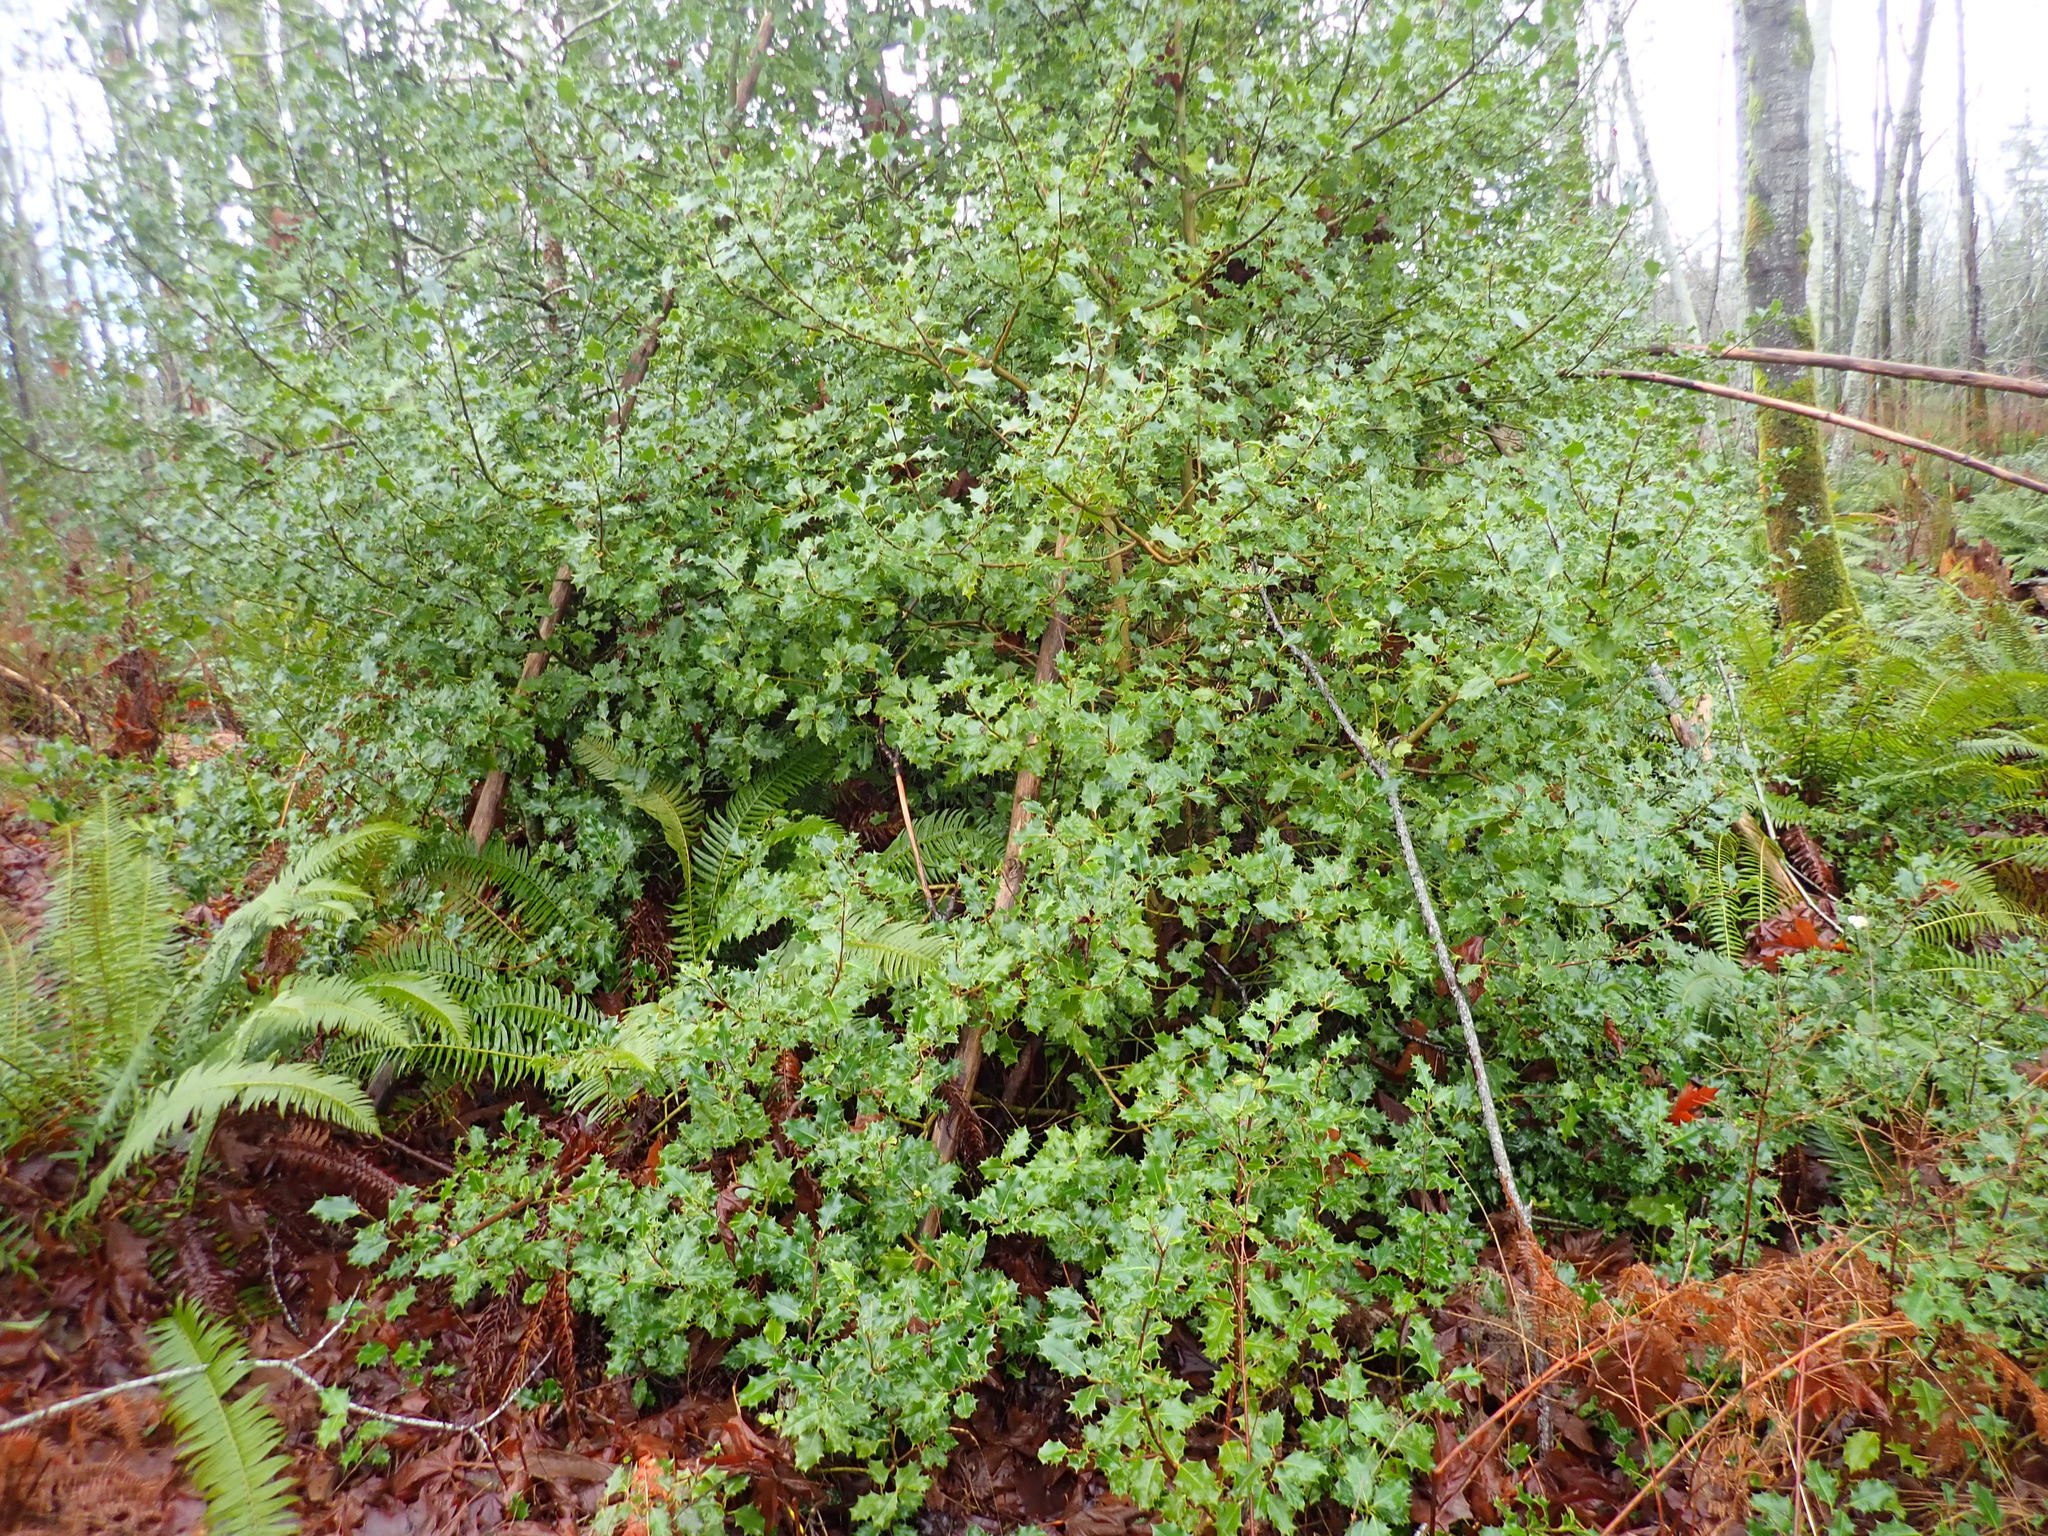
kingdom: Plantae
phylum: Tracheophyta
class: Magnoliopsida
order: Aquifoliales
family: Aquifoliaceae
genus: Ilex
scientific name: Ilex aquifolium
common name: English holly
